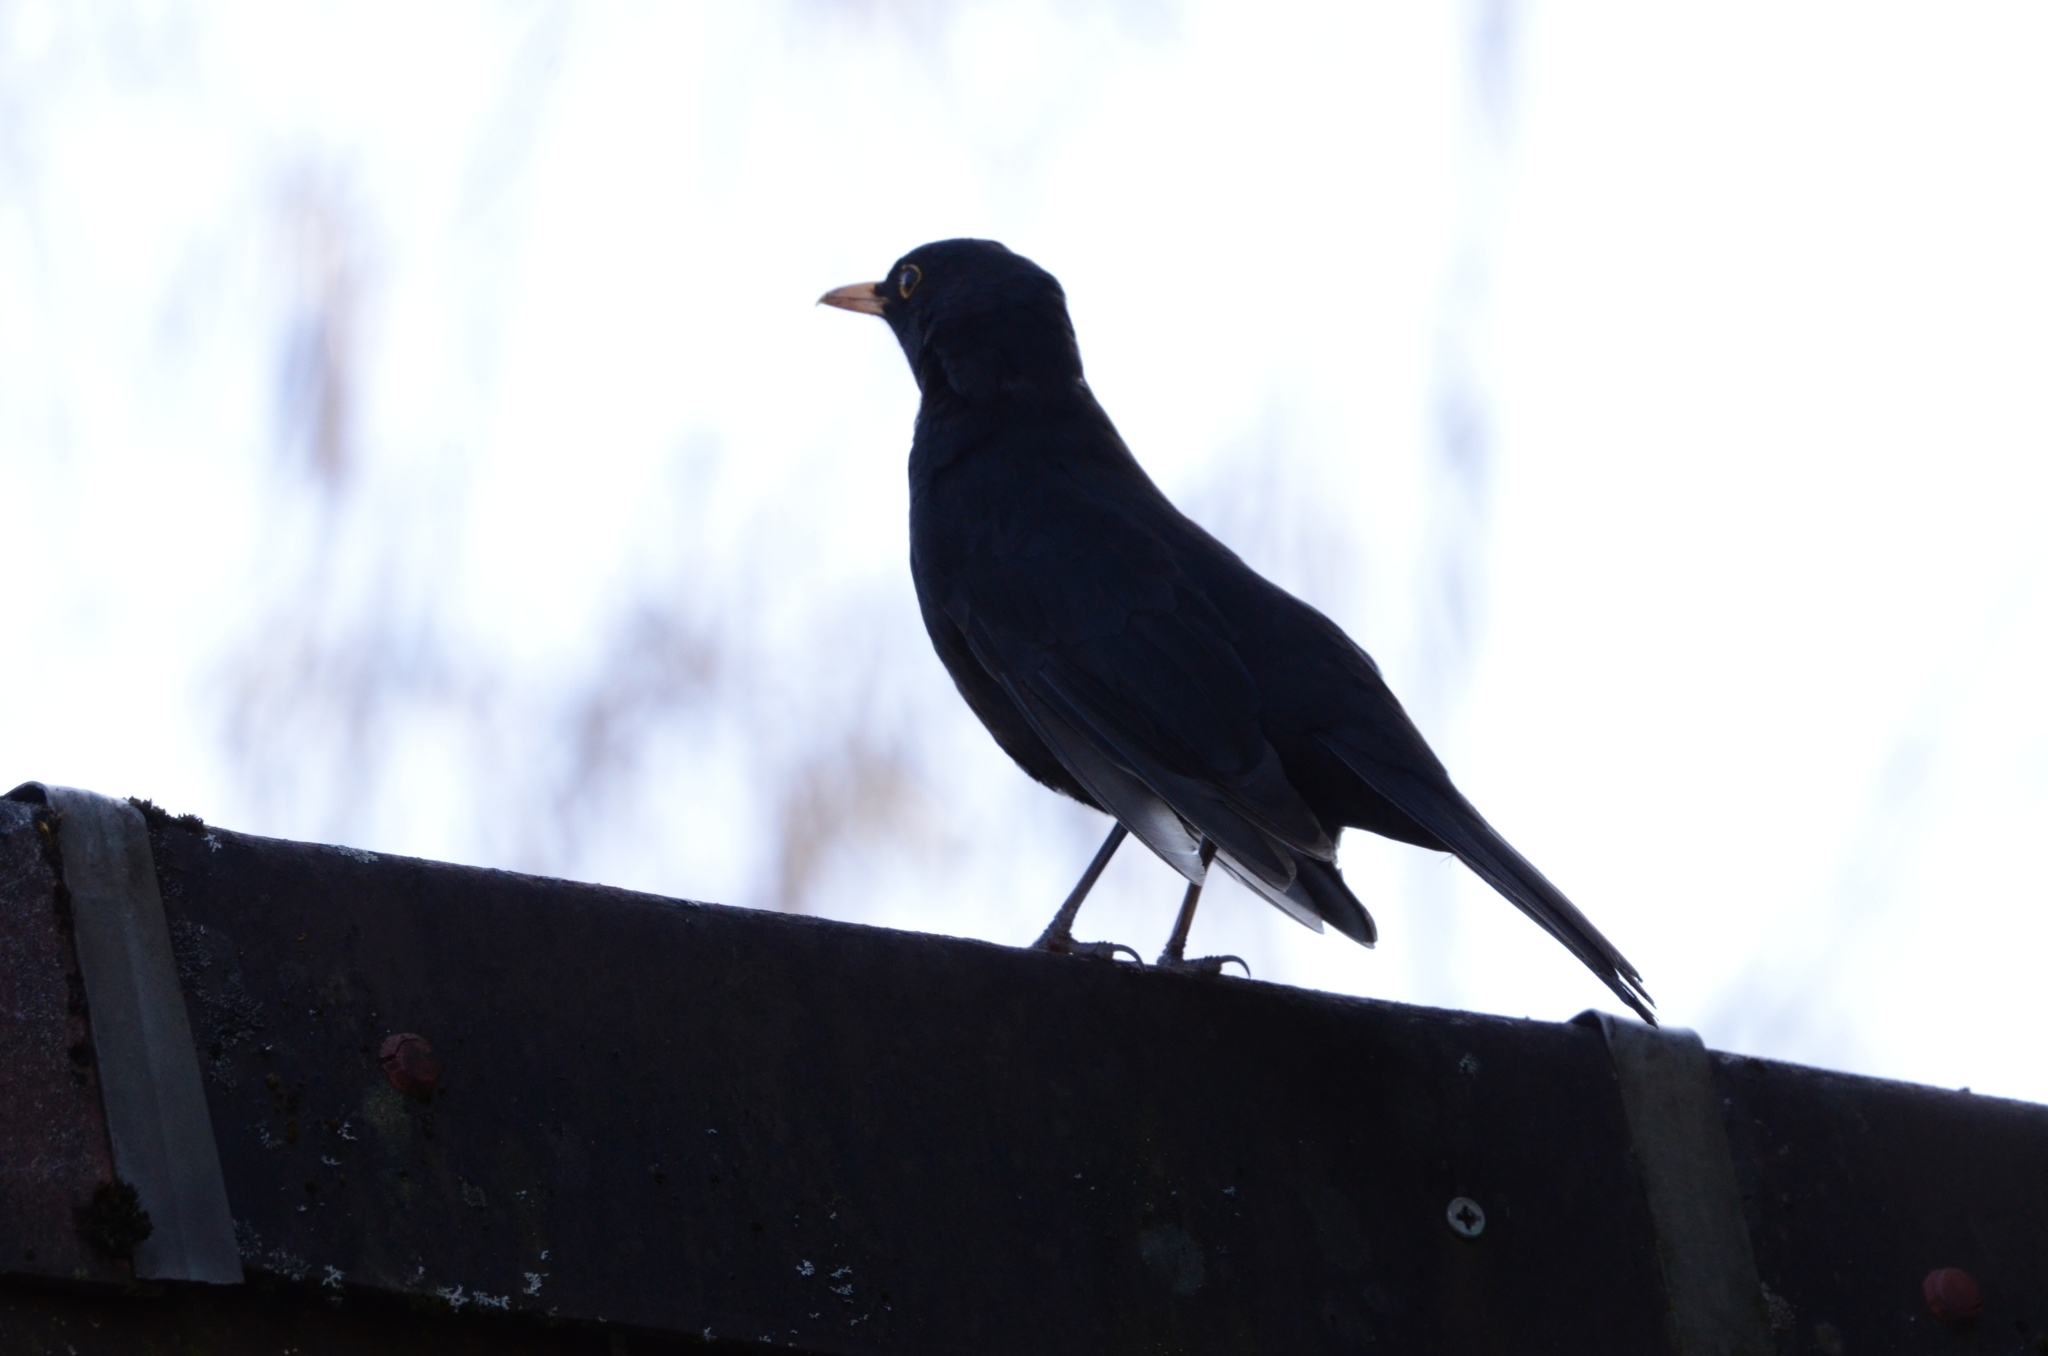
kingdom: Animalia
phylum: Chordata
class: Aves
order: Passeriformes
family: Turdidae
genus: Turdus
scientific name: Turdus merula
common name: Common blackbird
